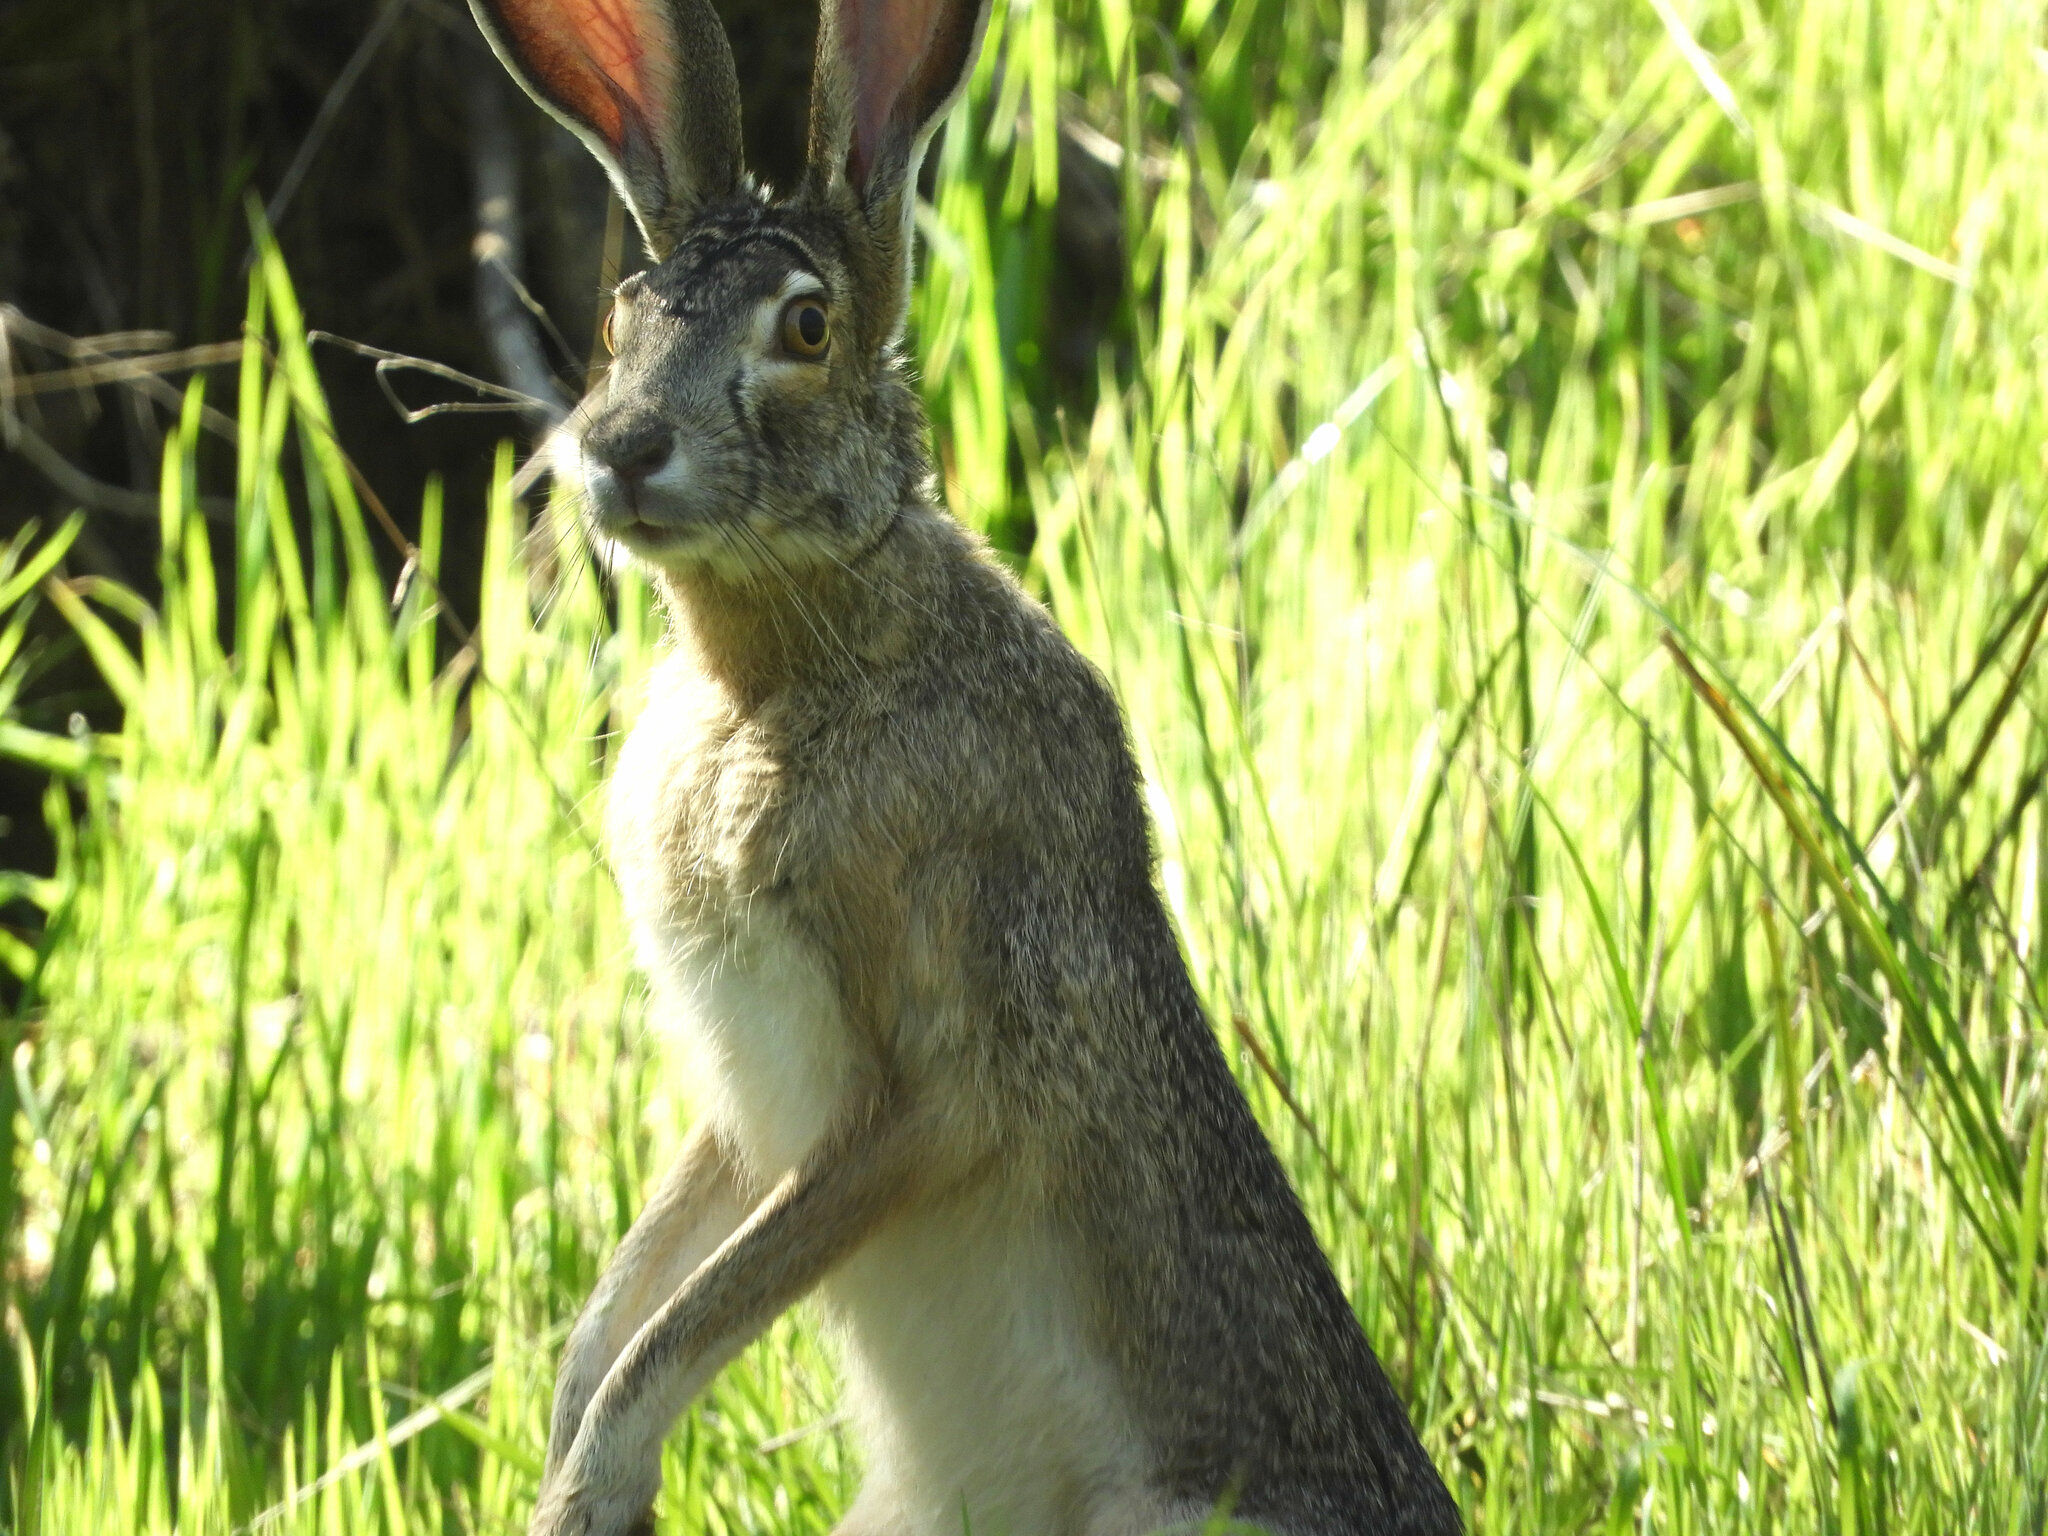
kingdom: Animalia
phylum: Chordata
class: Mammalia
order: Lagomorpha
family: Leporidae
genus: Lepus
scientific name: Lepus californicus
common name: Black-tailed jackrabbit
